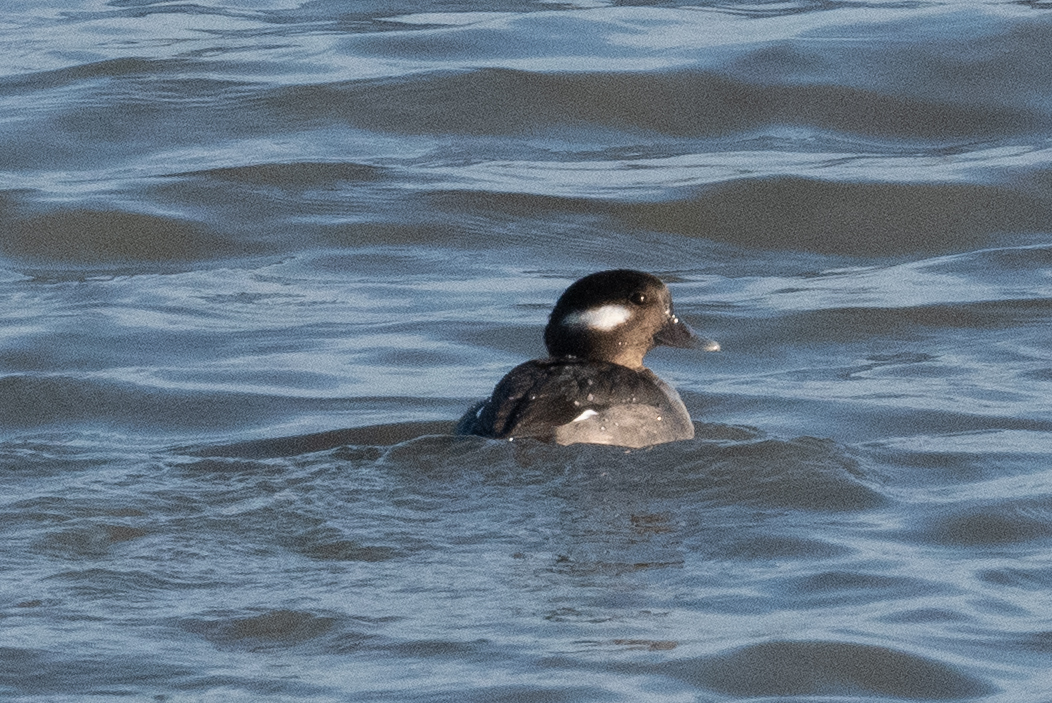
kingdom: Animalia
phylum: Chordata
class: Aves
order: Anseriformes
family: Anatidae
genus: Bucephala
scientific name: Bucephala albeola
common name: Bufflehead
